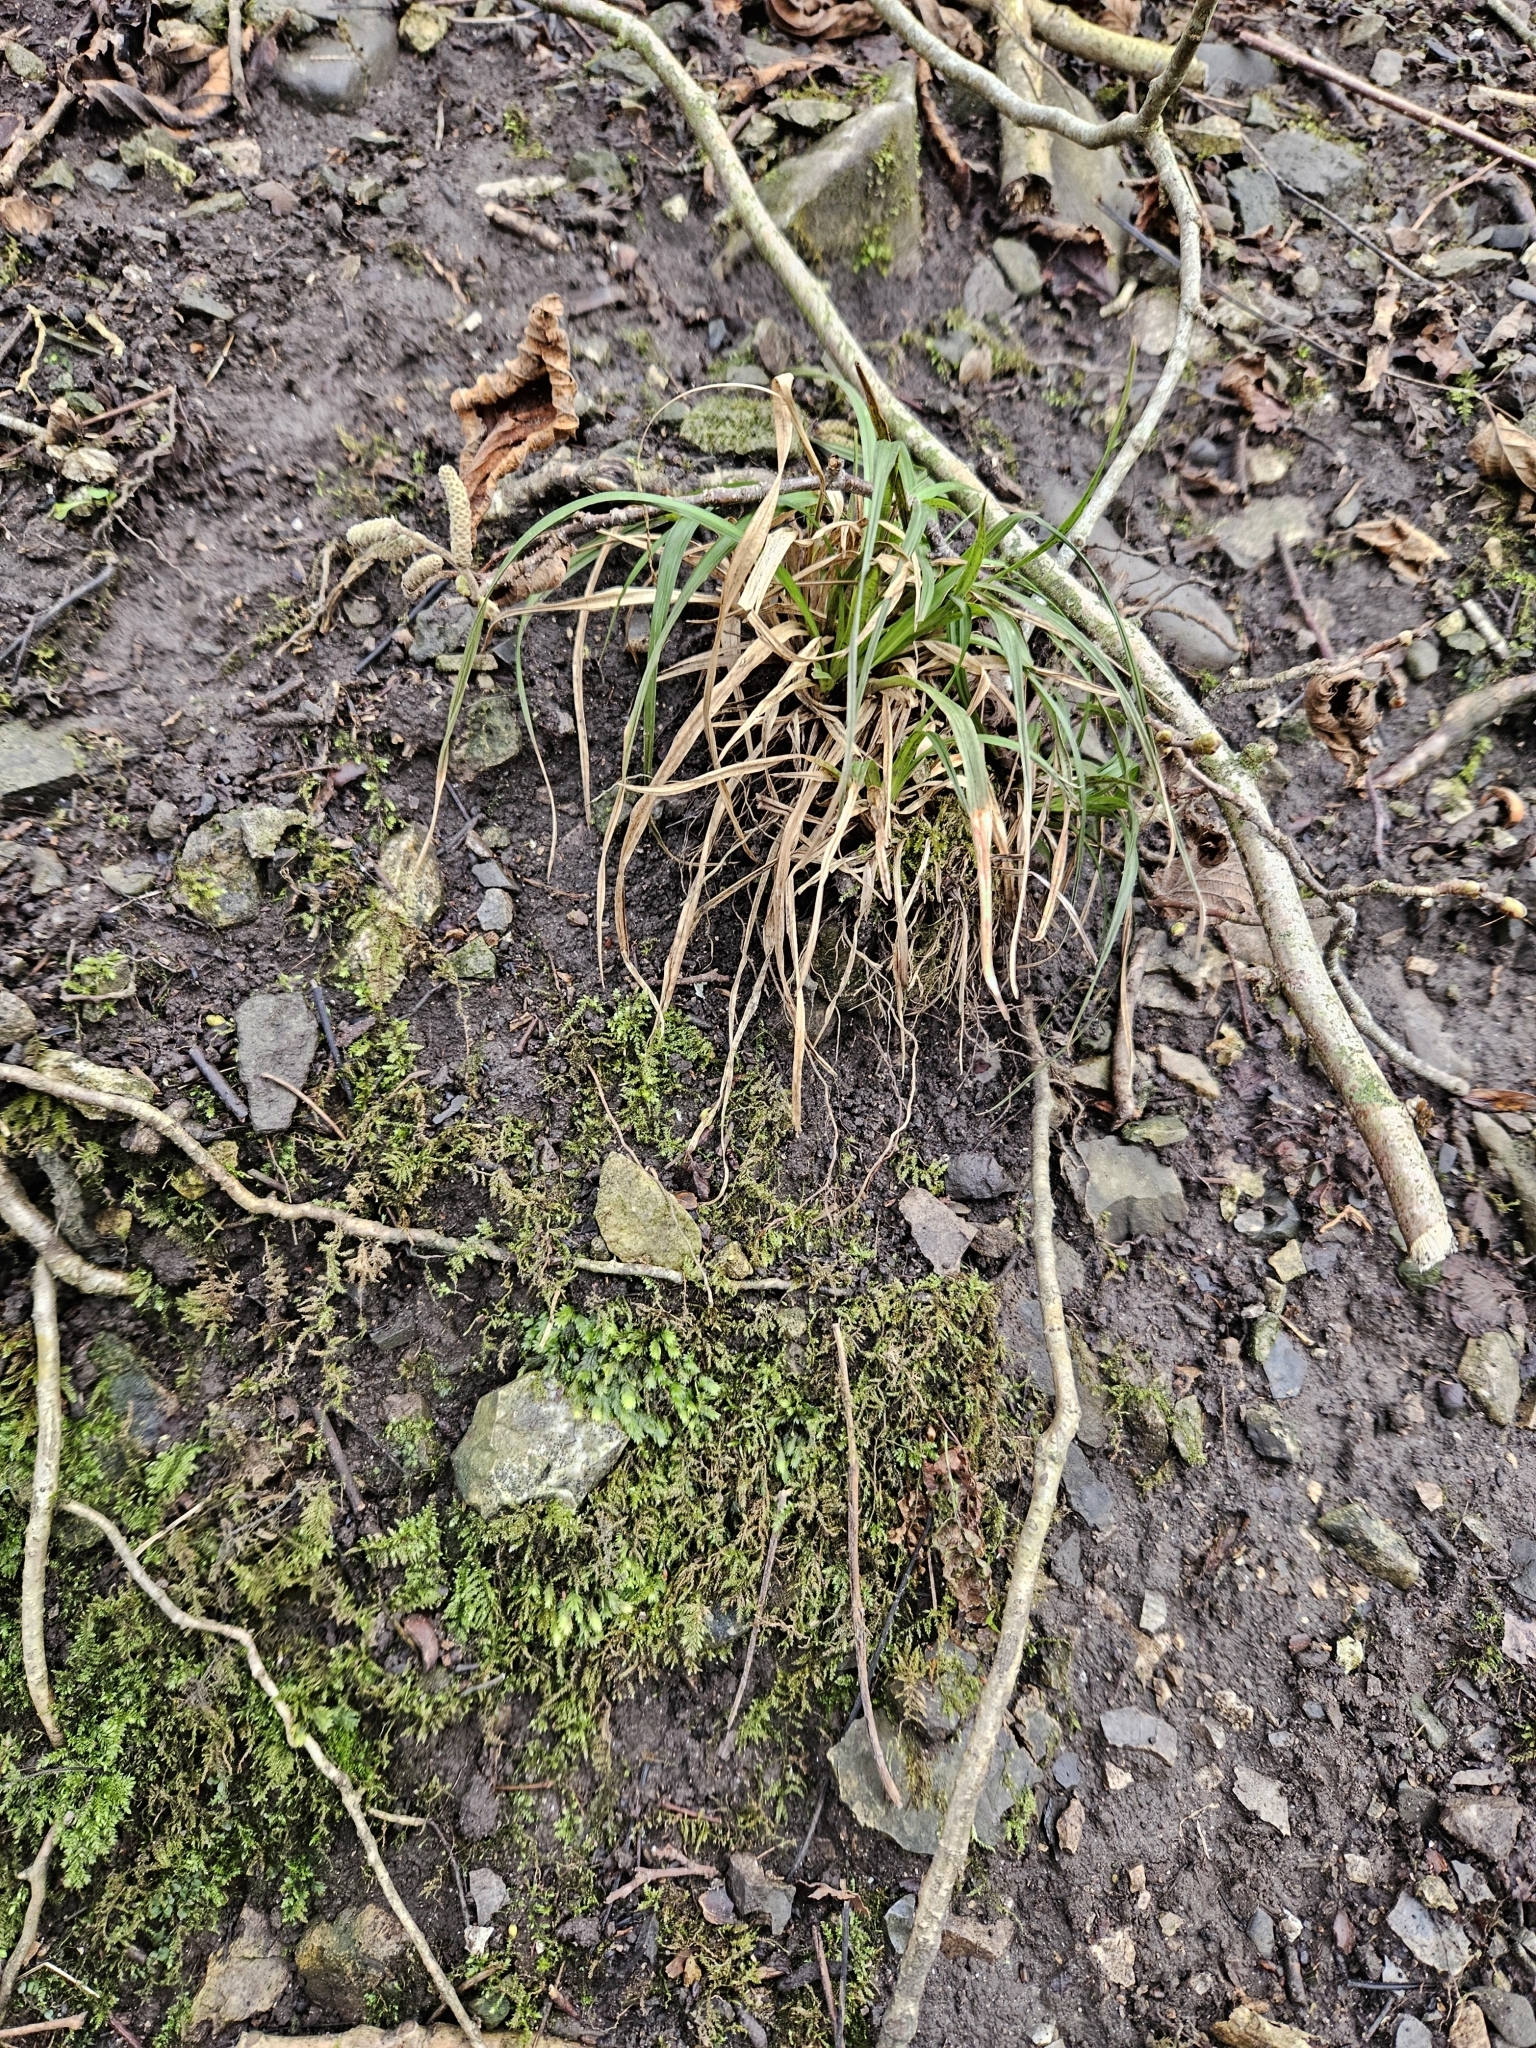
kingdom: Plantae
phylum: Bryophyta
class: Bryopsida
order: Dicranales
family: Fissidentaceae
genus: Fissidens
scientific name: Fissidens taxifolius
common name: Yew-leaved pocket moss
